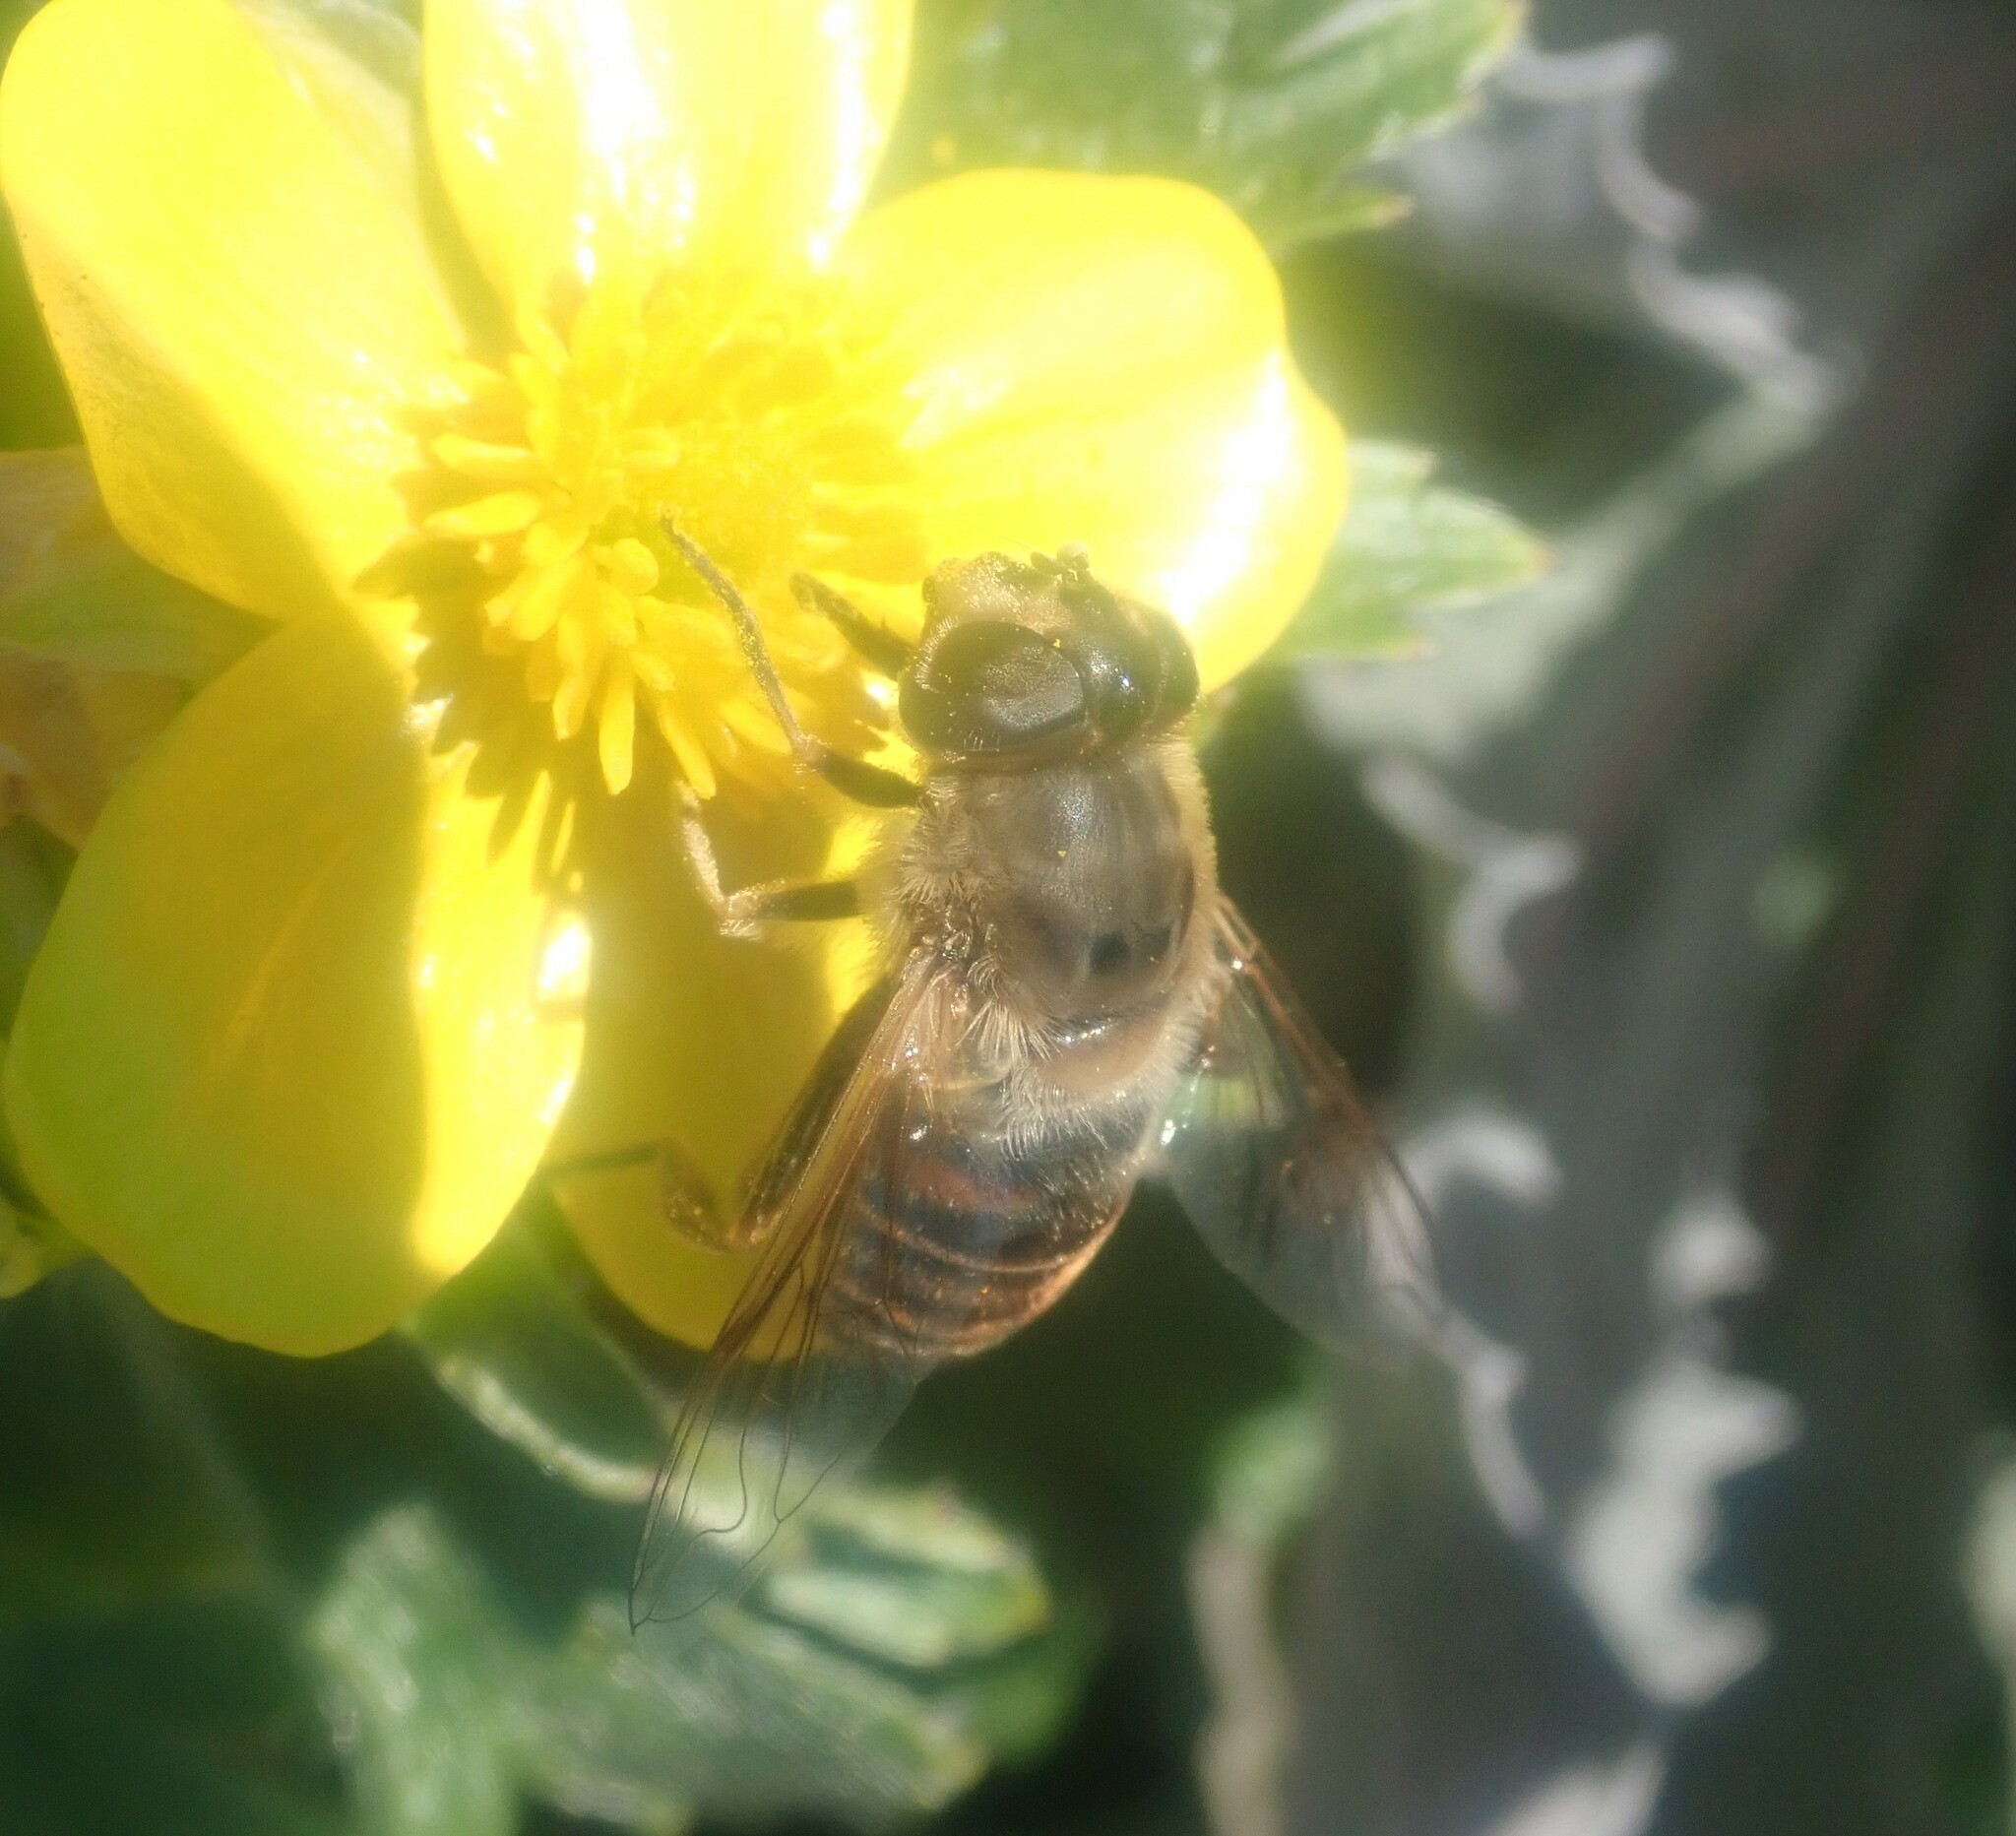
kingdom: Animalia
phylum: Arthropoda
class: Insecta
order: Diptera
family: Syrphidae
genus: Eristalis
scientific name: Eristalis tenax
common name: Drone fly
